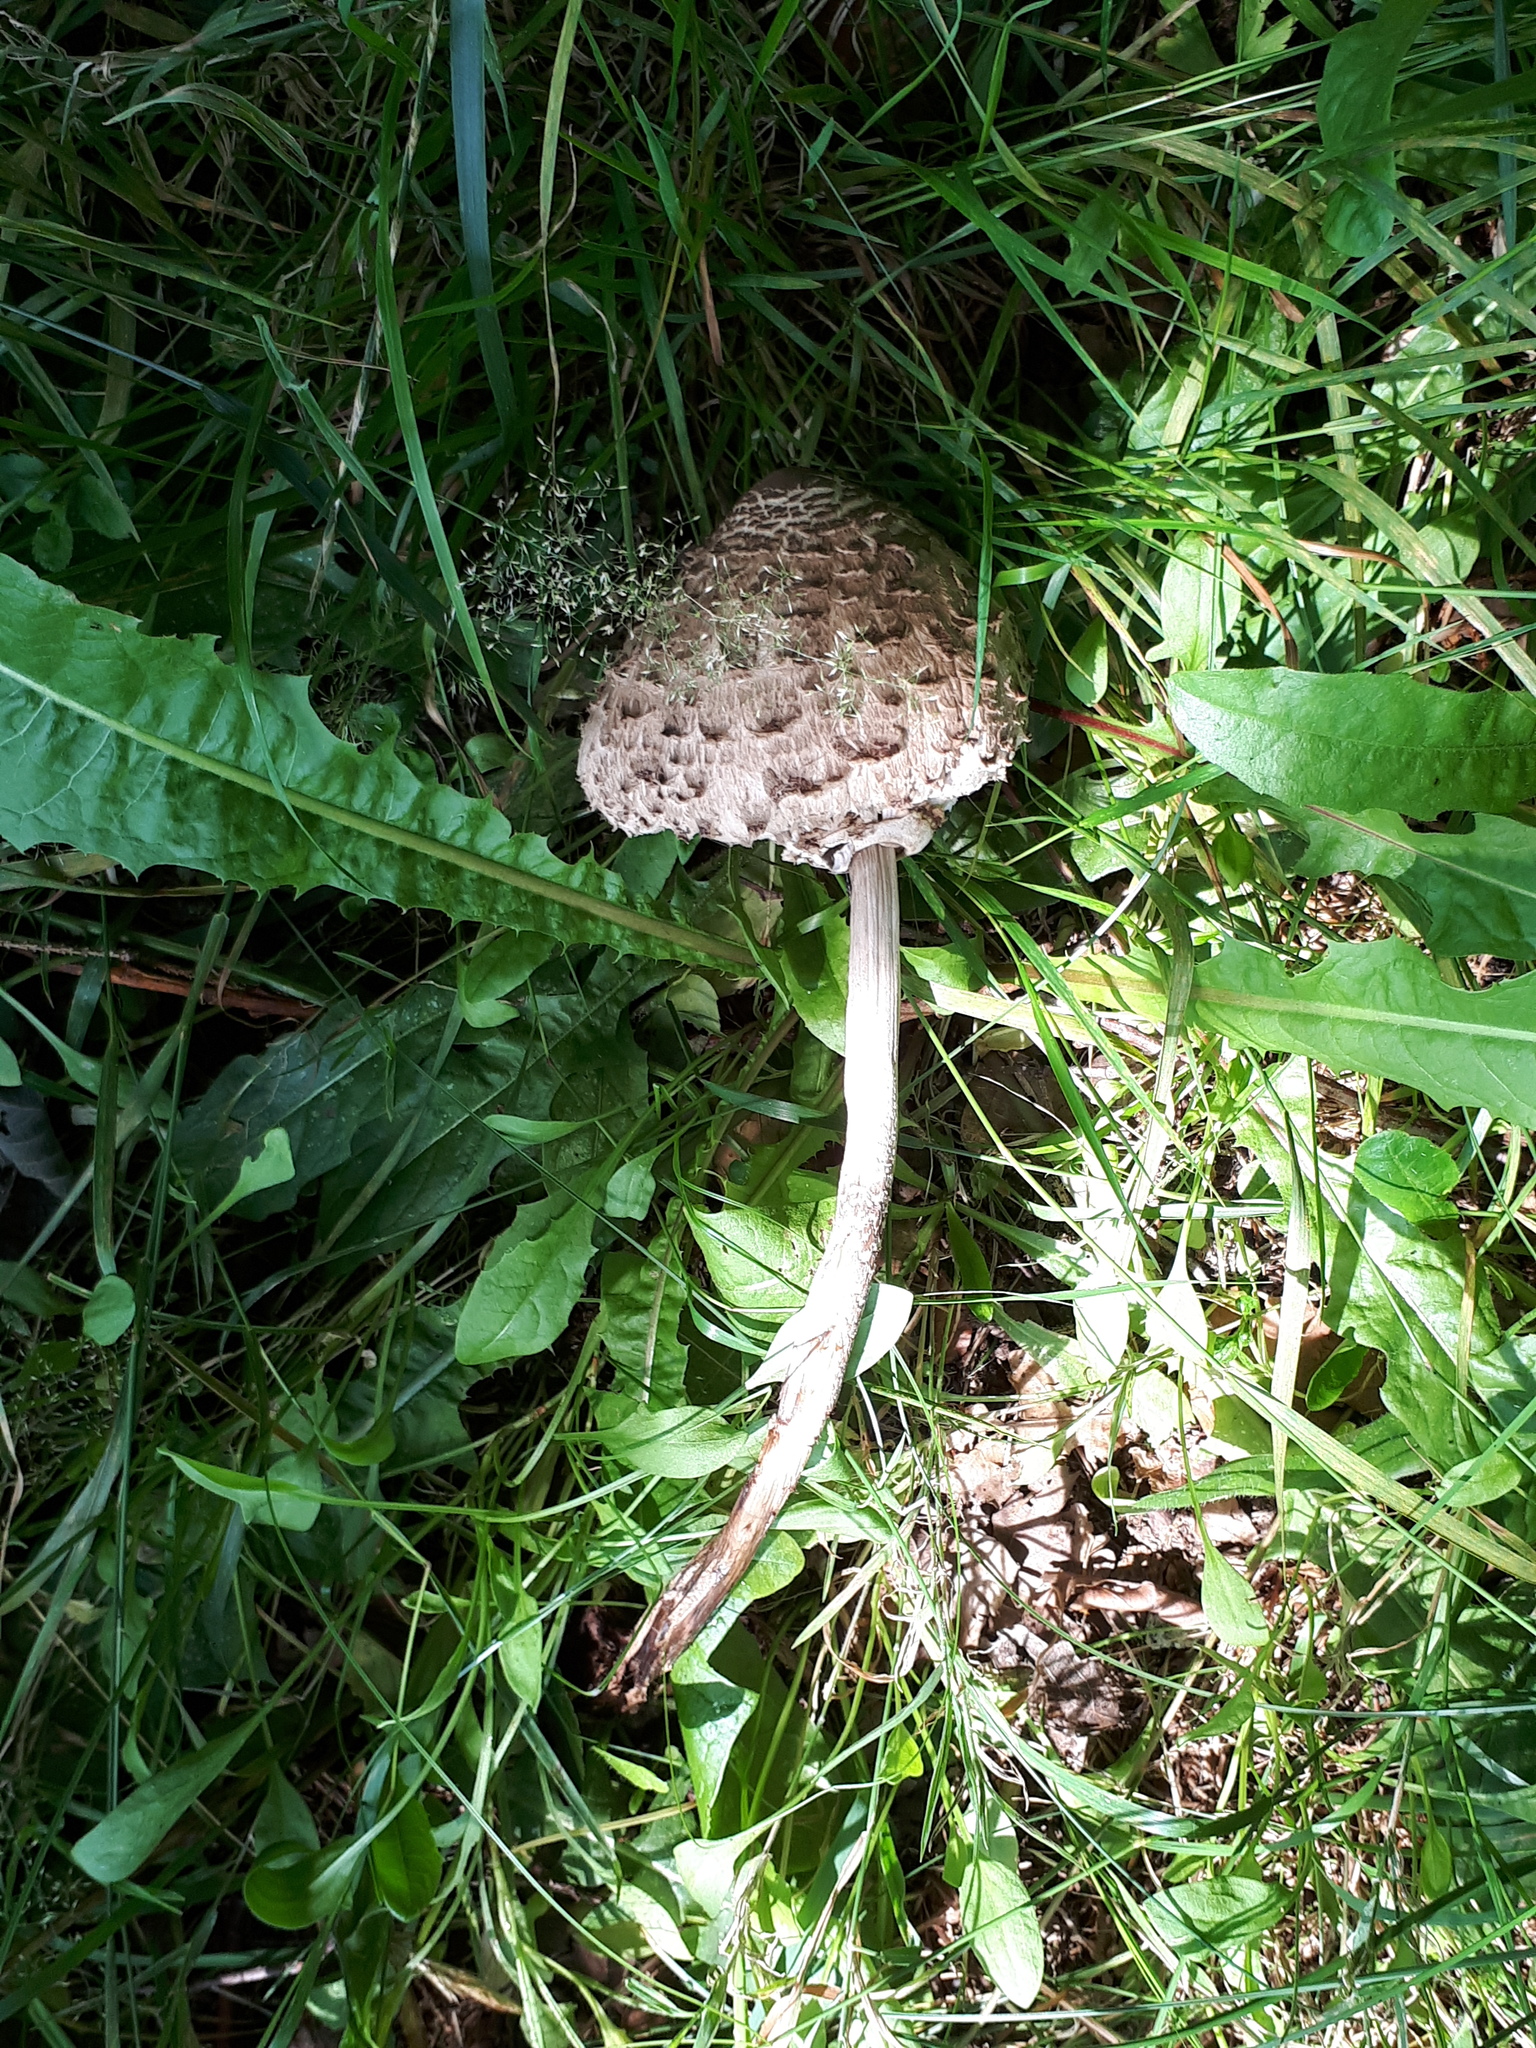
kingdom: Fungi
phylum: Basidiomycota
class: Agaricomycetes
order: Agaricales
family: Agaricaceae
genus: Macrolepiota
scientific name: Macrolepiota procera
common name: Parasol
